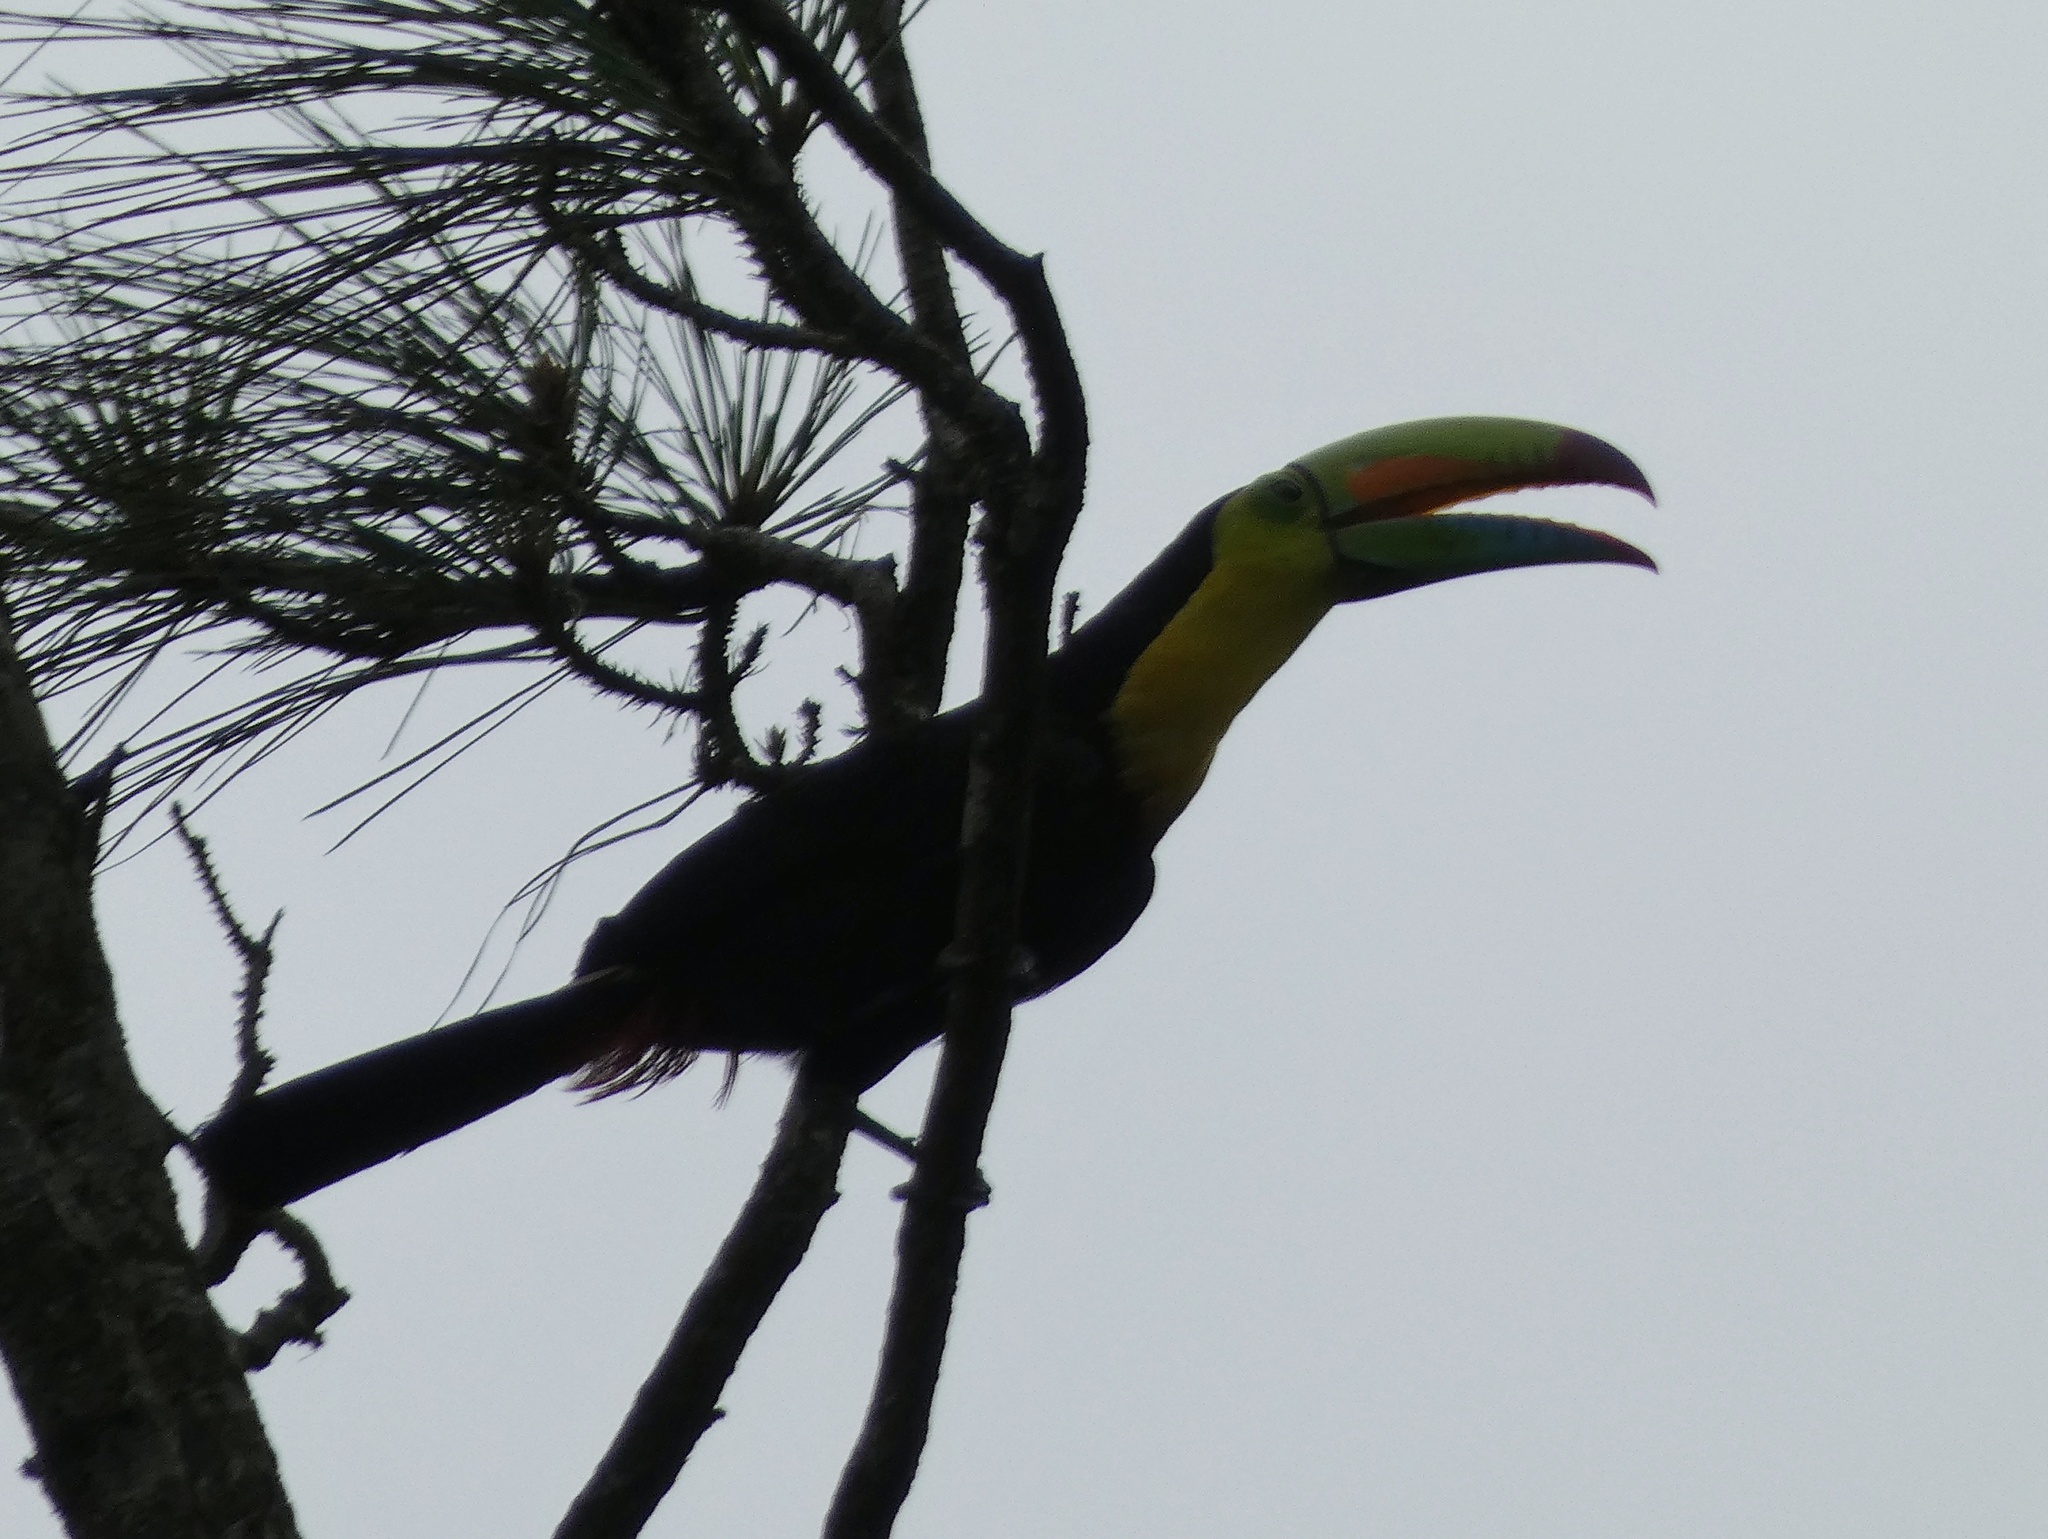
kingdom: Animalia
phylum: Chordata
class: Aves
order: Piciformes
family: Ramphastidae
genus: Ramphastos
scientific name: Ramphastos sulfuratus
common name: Keel-billed toucan
